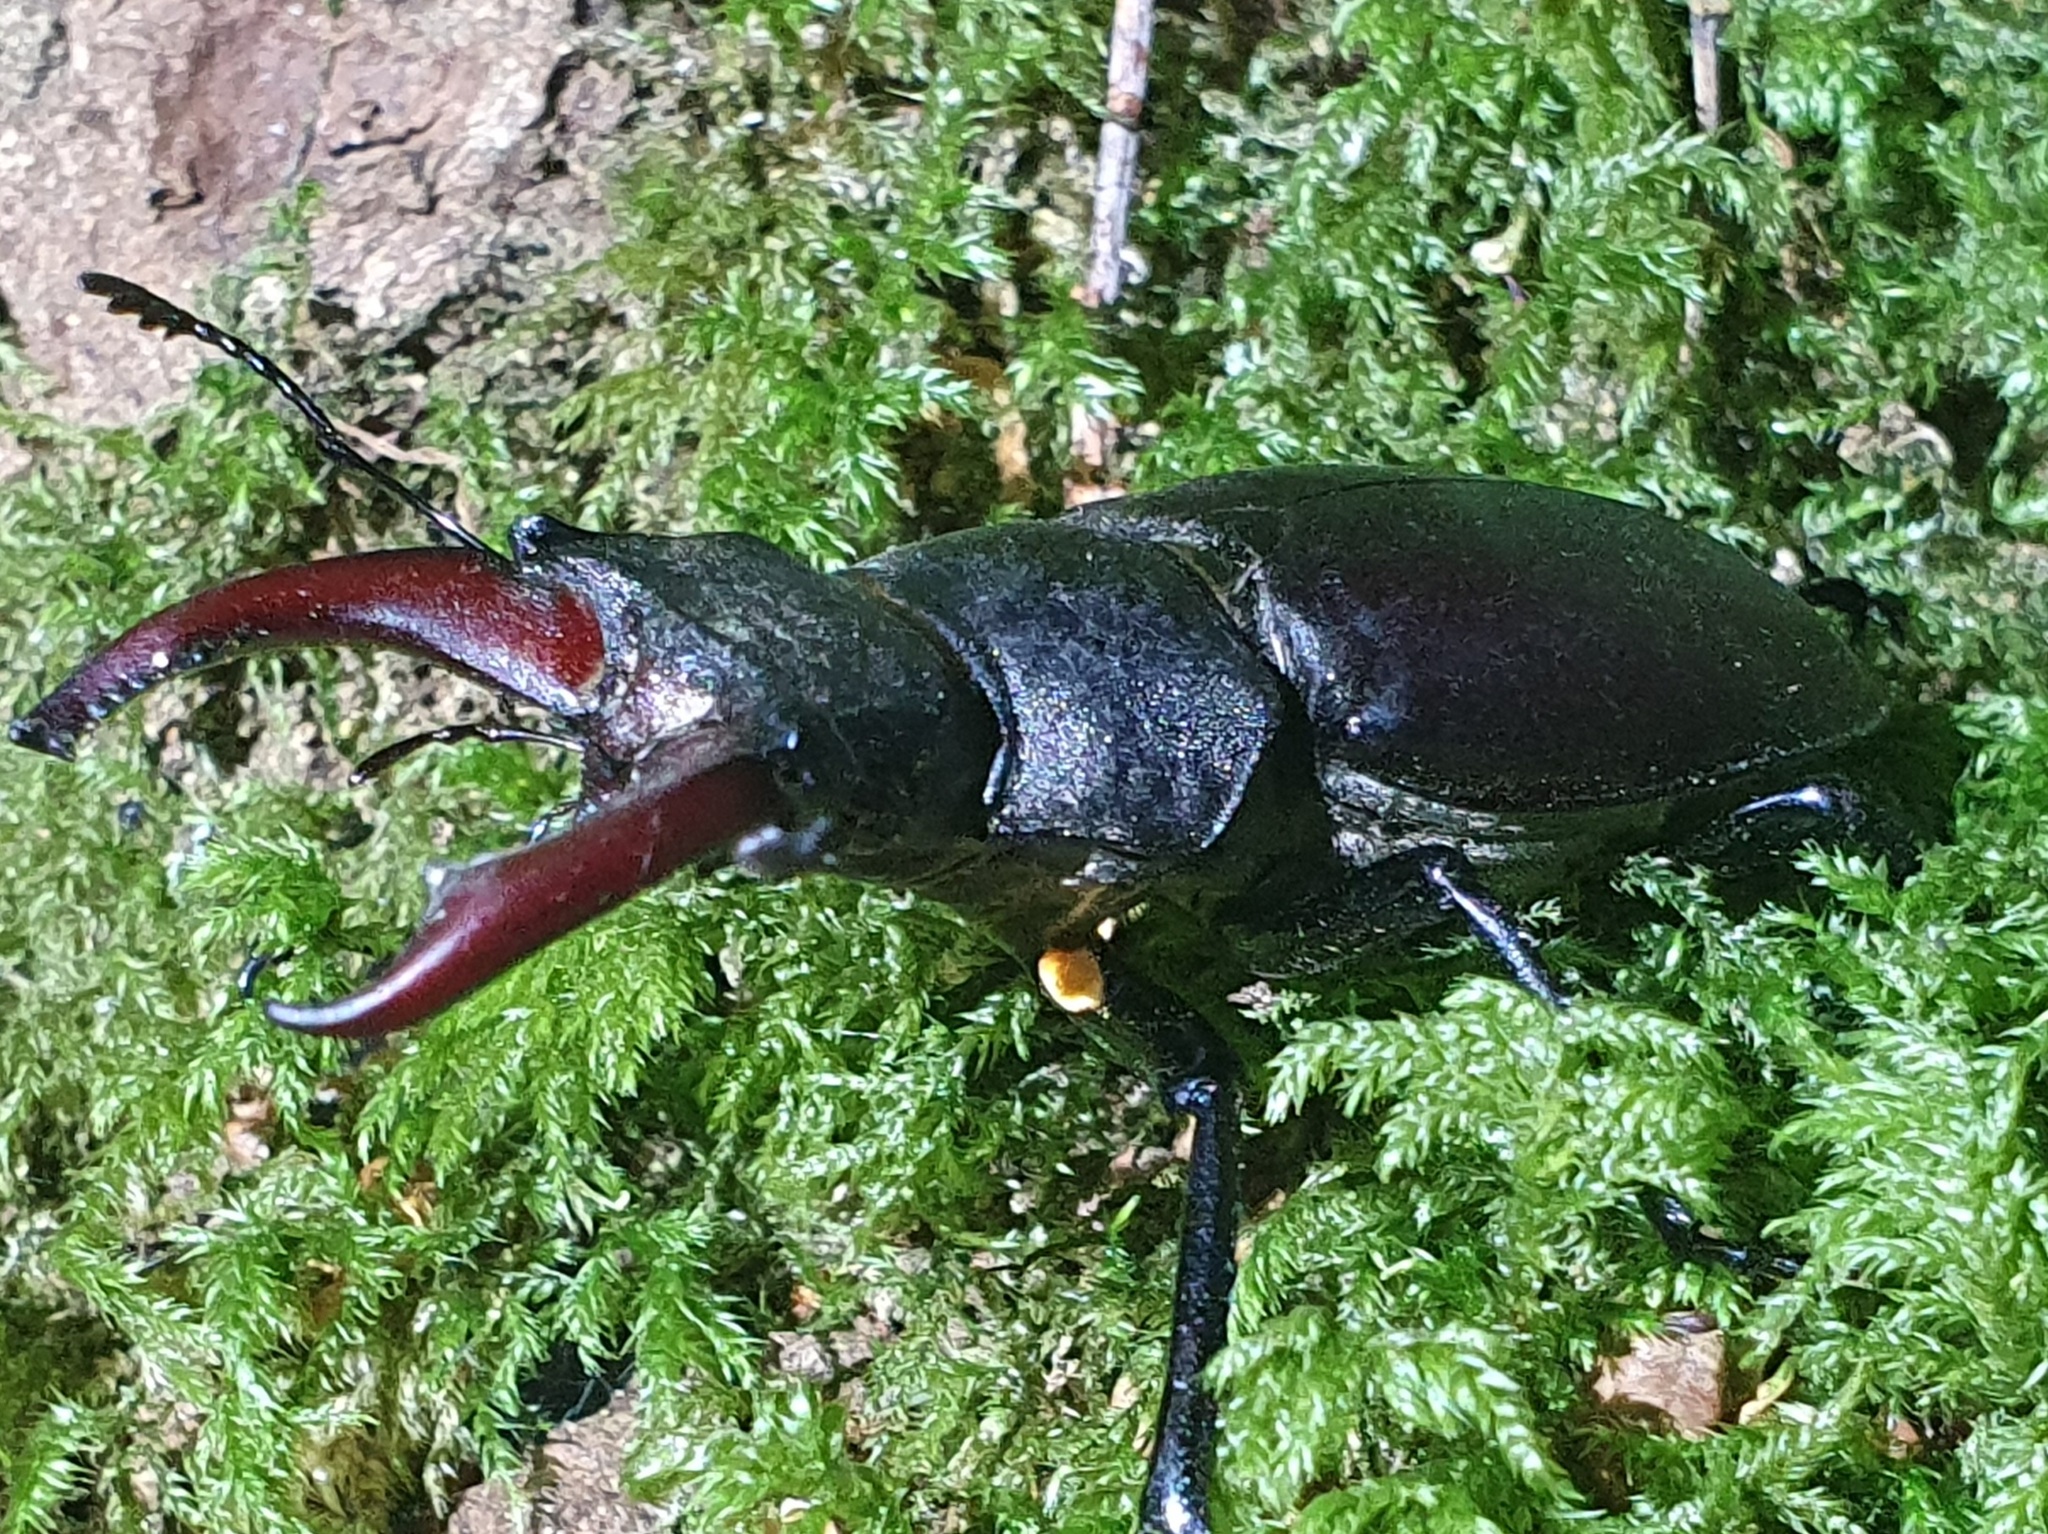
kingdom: Animalia
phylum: Arthropoda
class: Insecta
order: Coleoptera
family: Lucanidae
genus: Lucanus
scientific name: Lucanus cervus
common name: Stag beetle
